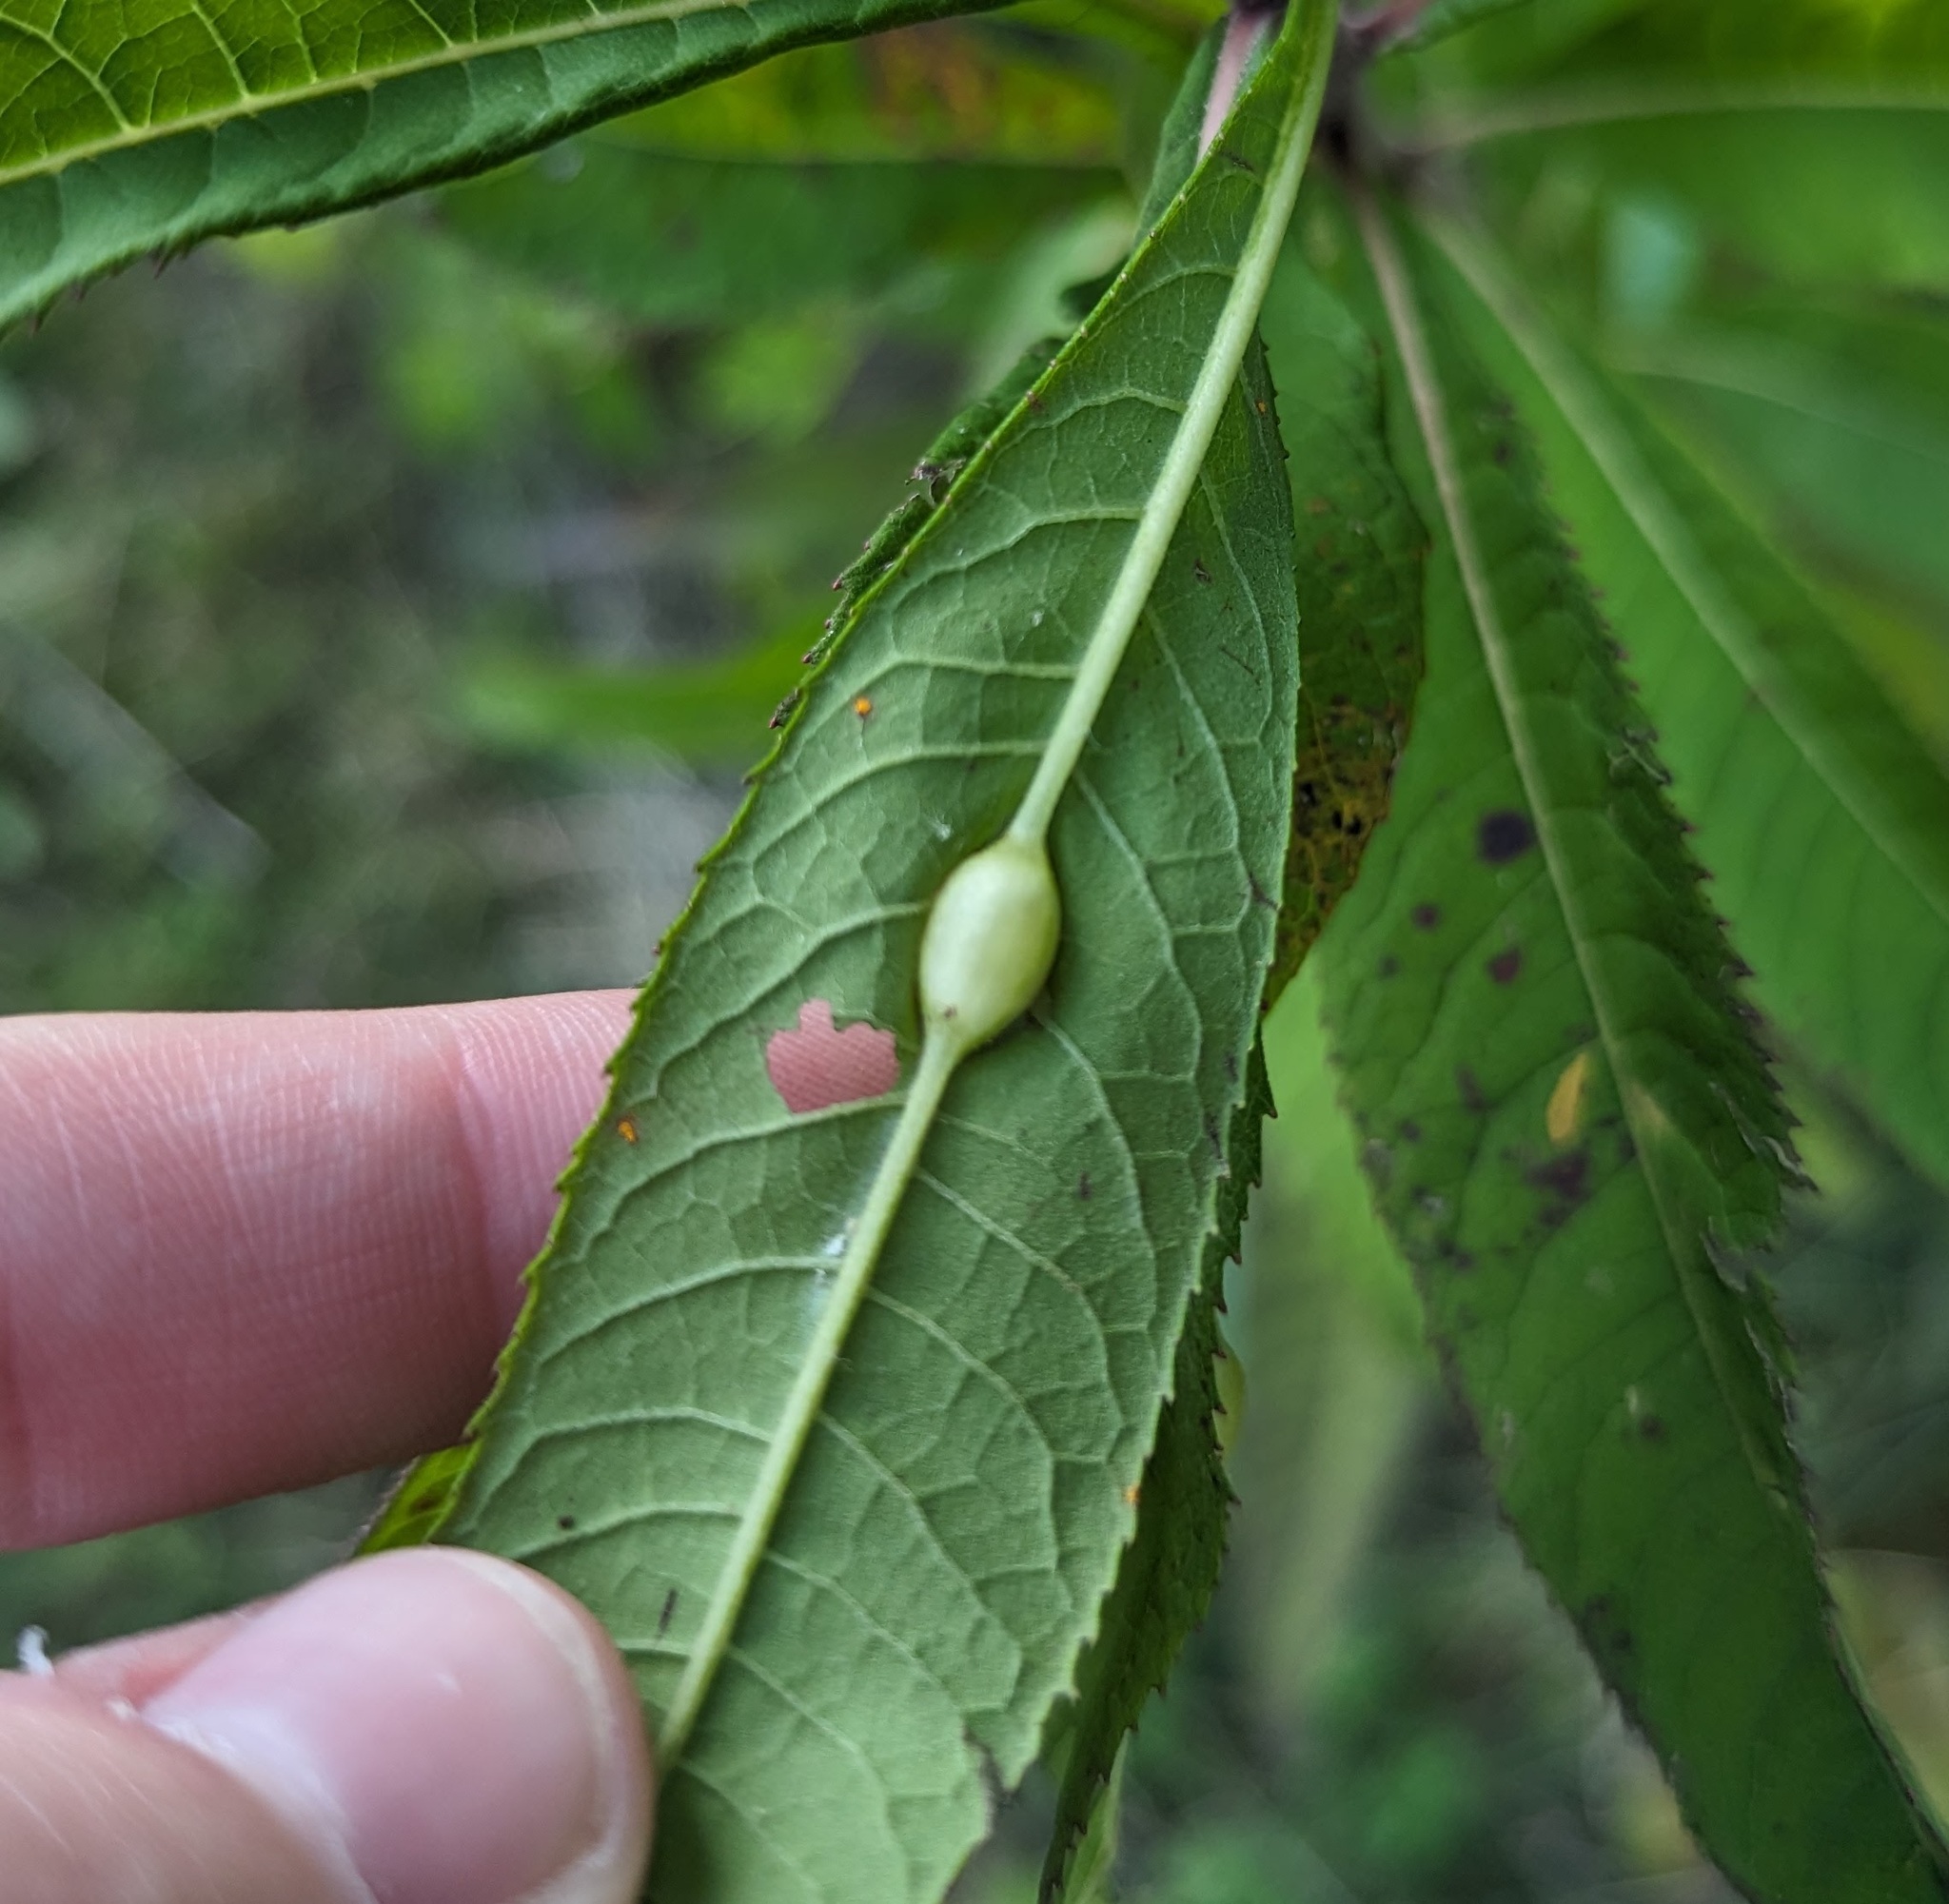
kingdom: Animalia
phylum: Arthropoda
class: Insecta
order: Diptera
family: Cecidomyiidae
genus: Neolasioptera
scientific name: Neolasioptera vernoniae
